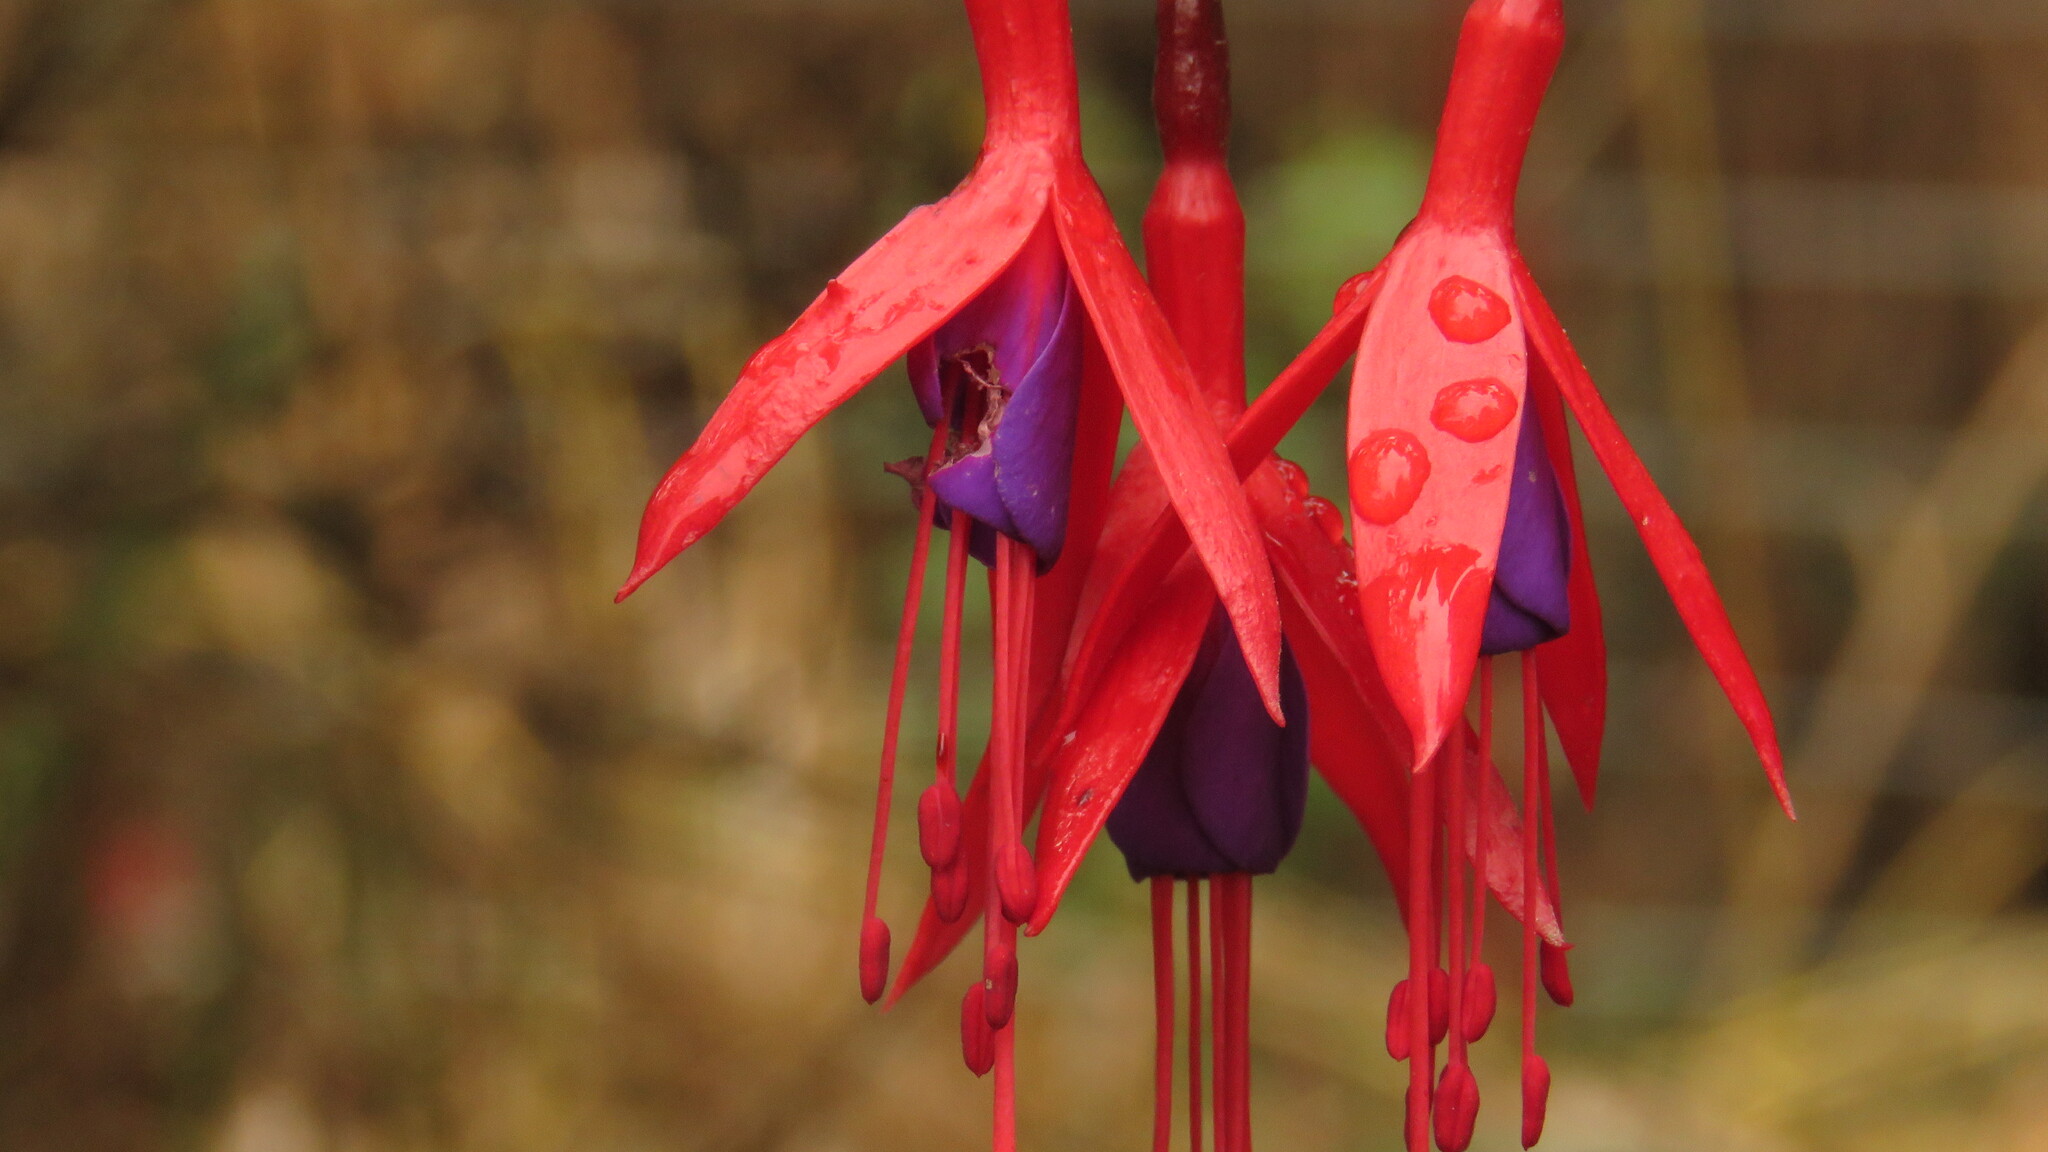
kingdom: Plantae
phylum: Tracheophyta
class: Magnoliopsida
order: Myrtales
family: Onagraceae
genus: Fuchsia
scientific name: Fuchsia magellanica
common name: Hardy fuchsia
